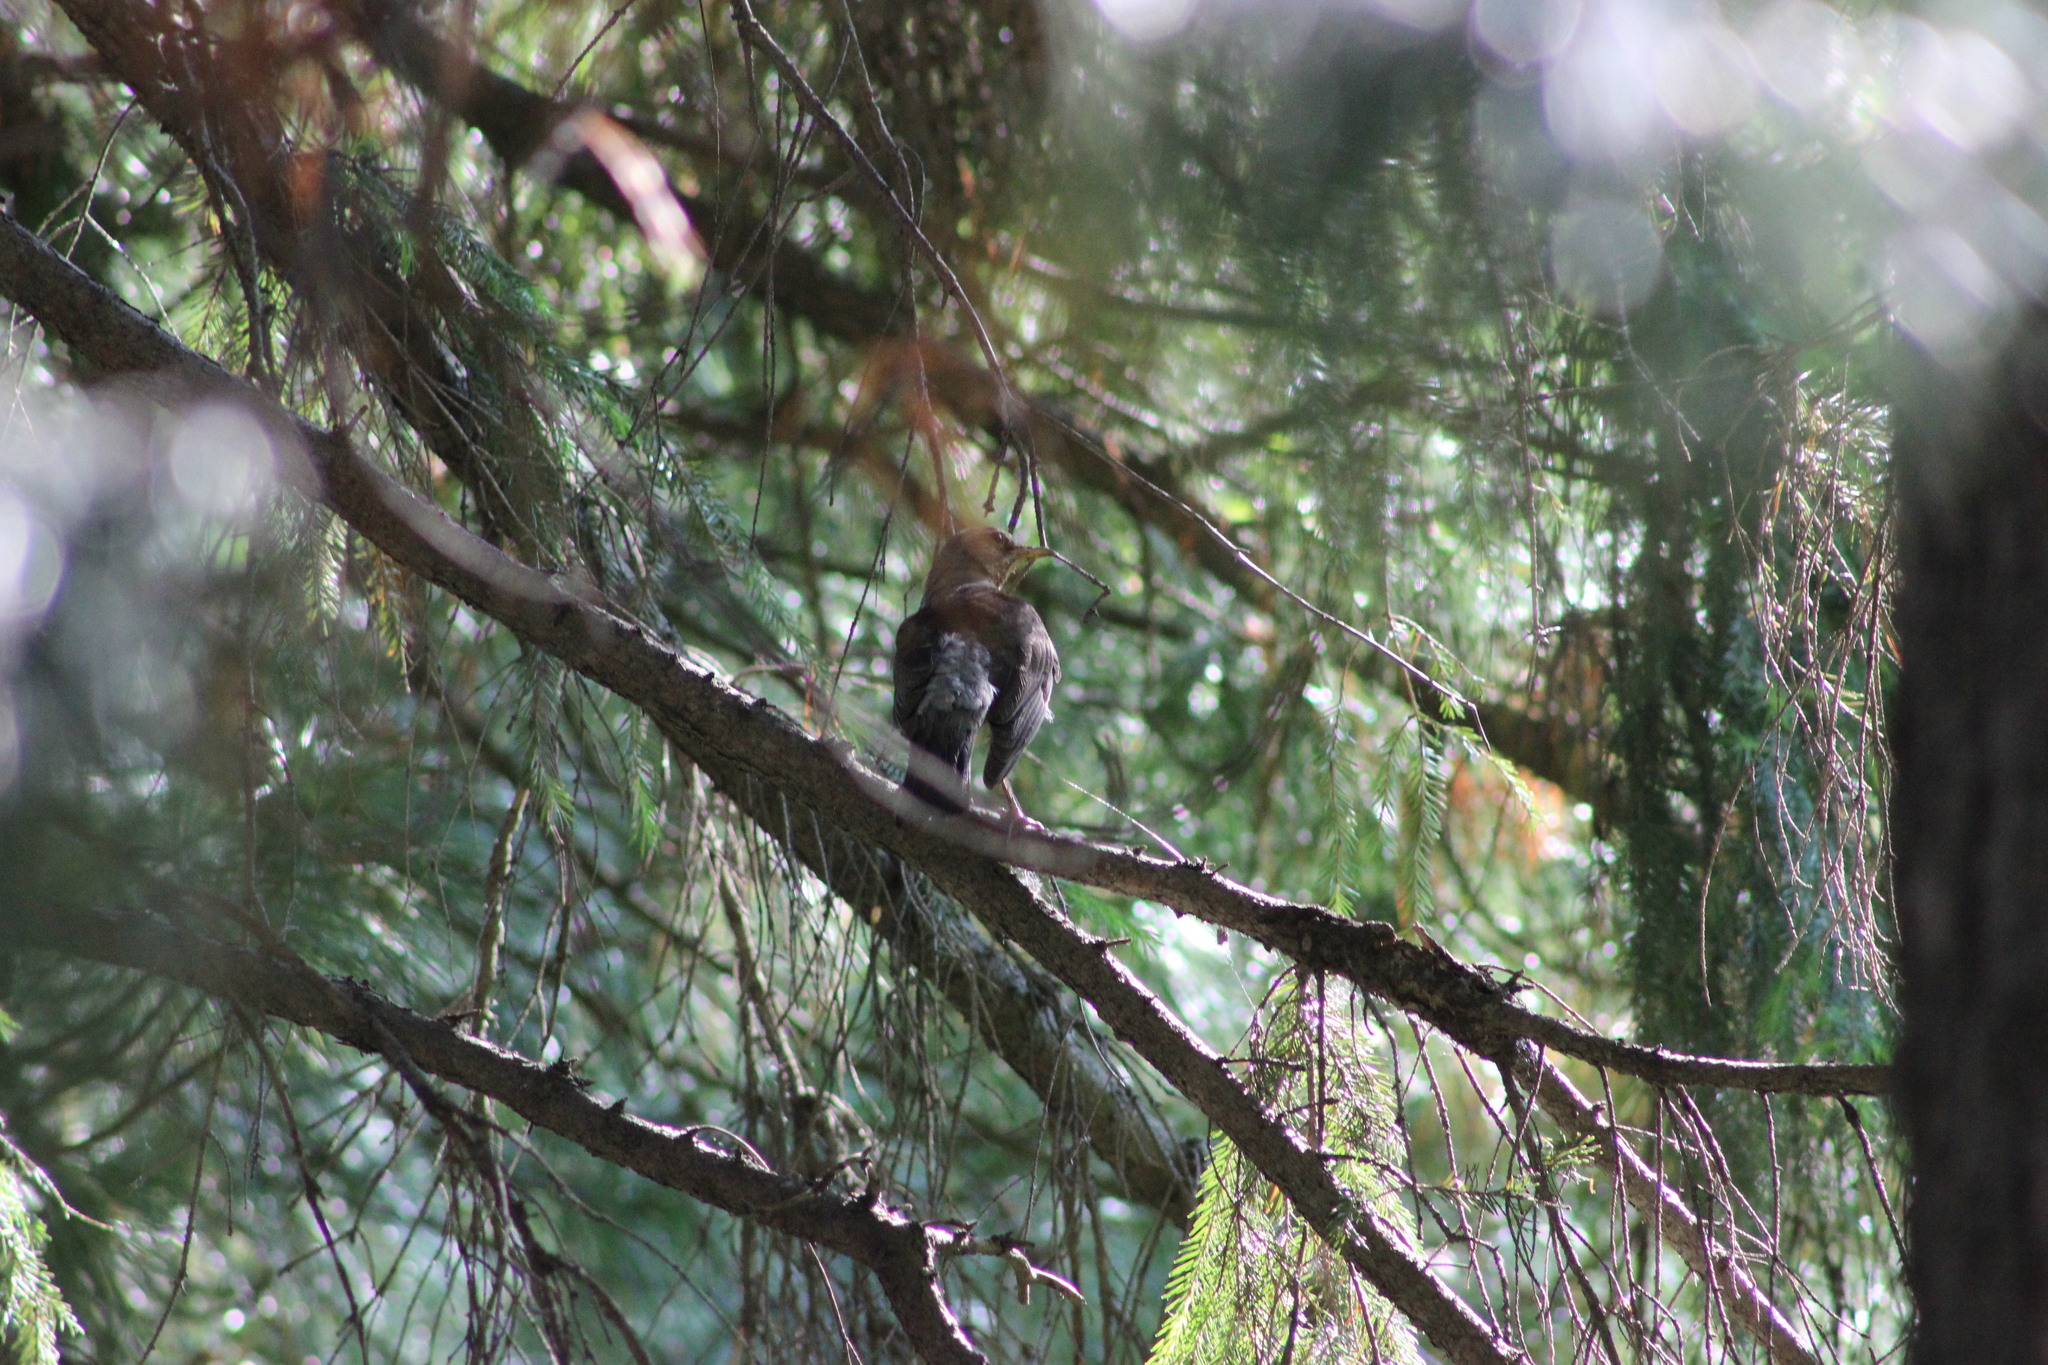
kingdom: Animalia
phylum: Chordata
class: Aves
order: Passeriformes
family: Turdidae
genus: Turdus
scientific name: Turdus pilaris
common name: Fieldfare
